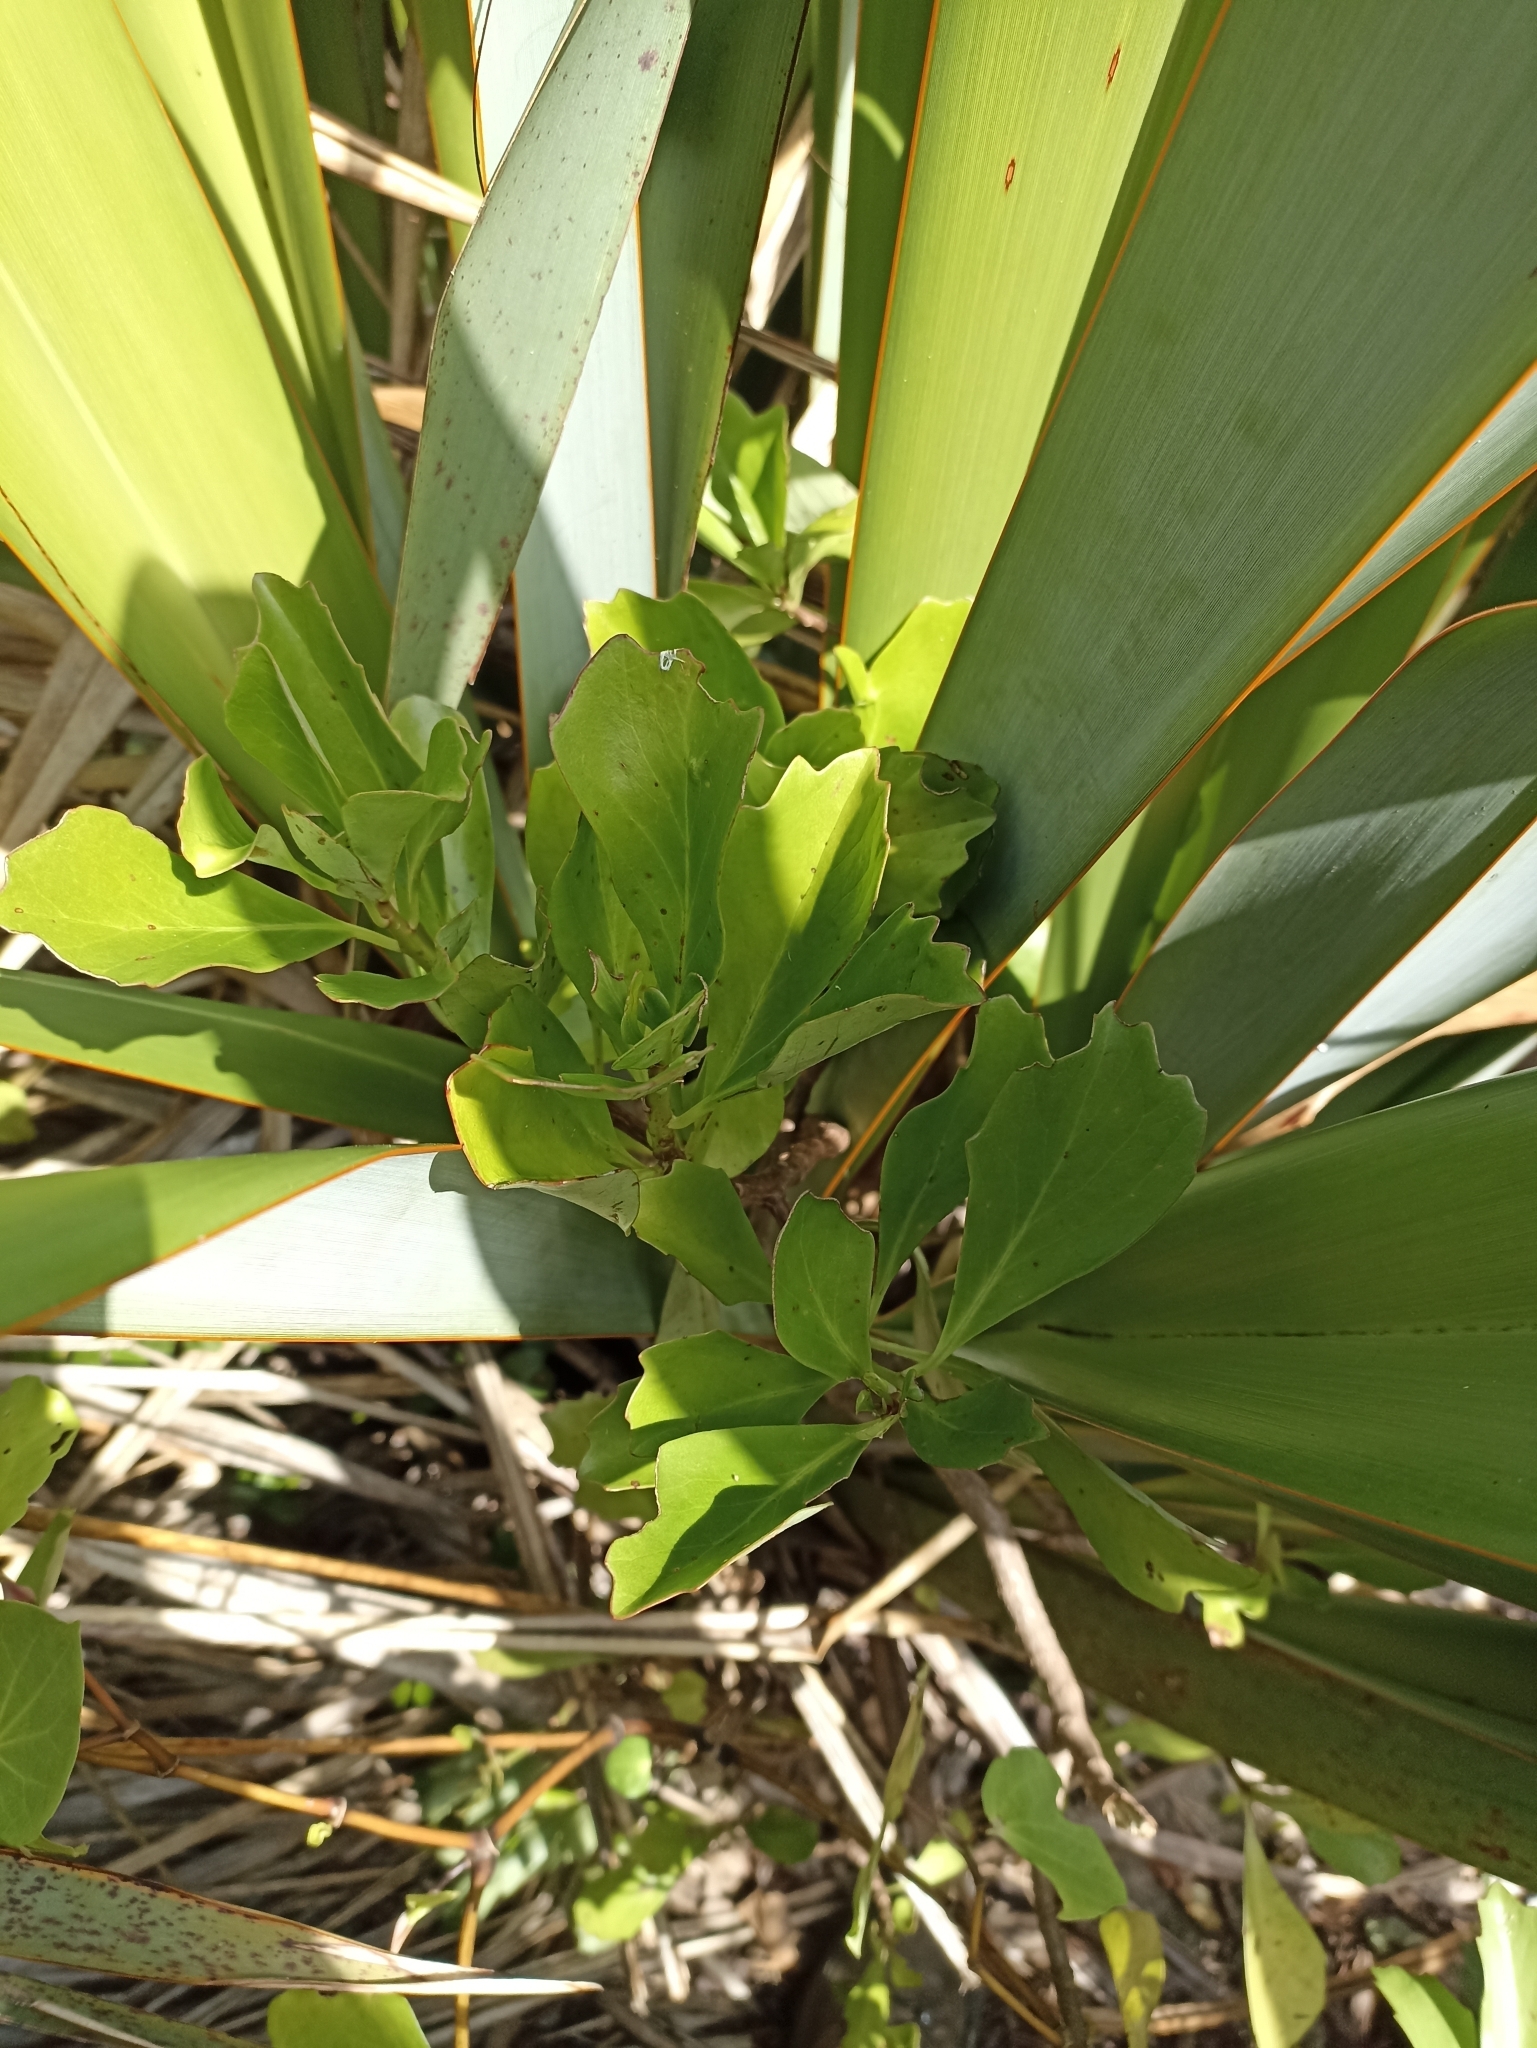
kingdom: Plantae
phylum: Tracheophyta
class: Magnoliopsida
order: Asterales
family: Asteraceae
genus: Brachyglottis
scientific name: Brachyglottis kirkii
